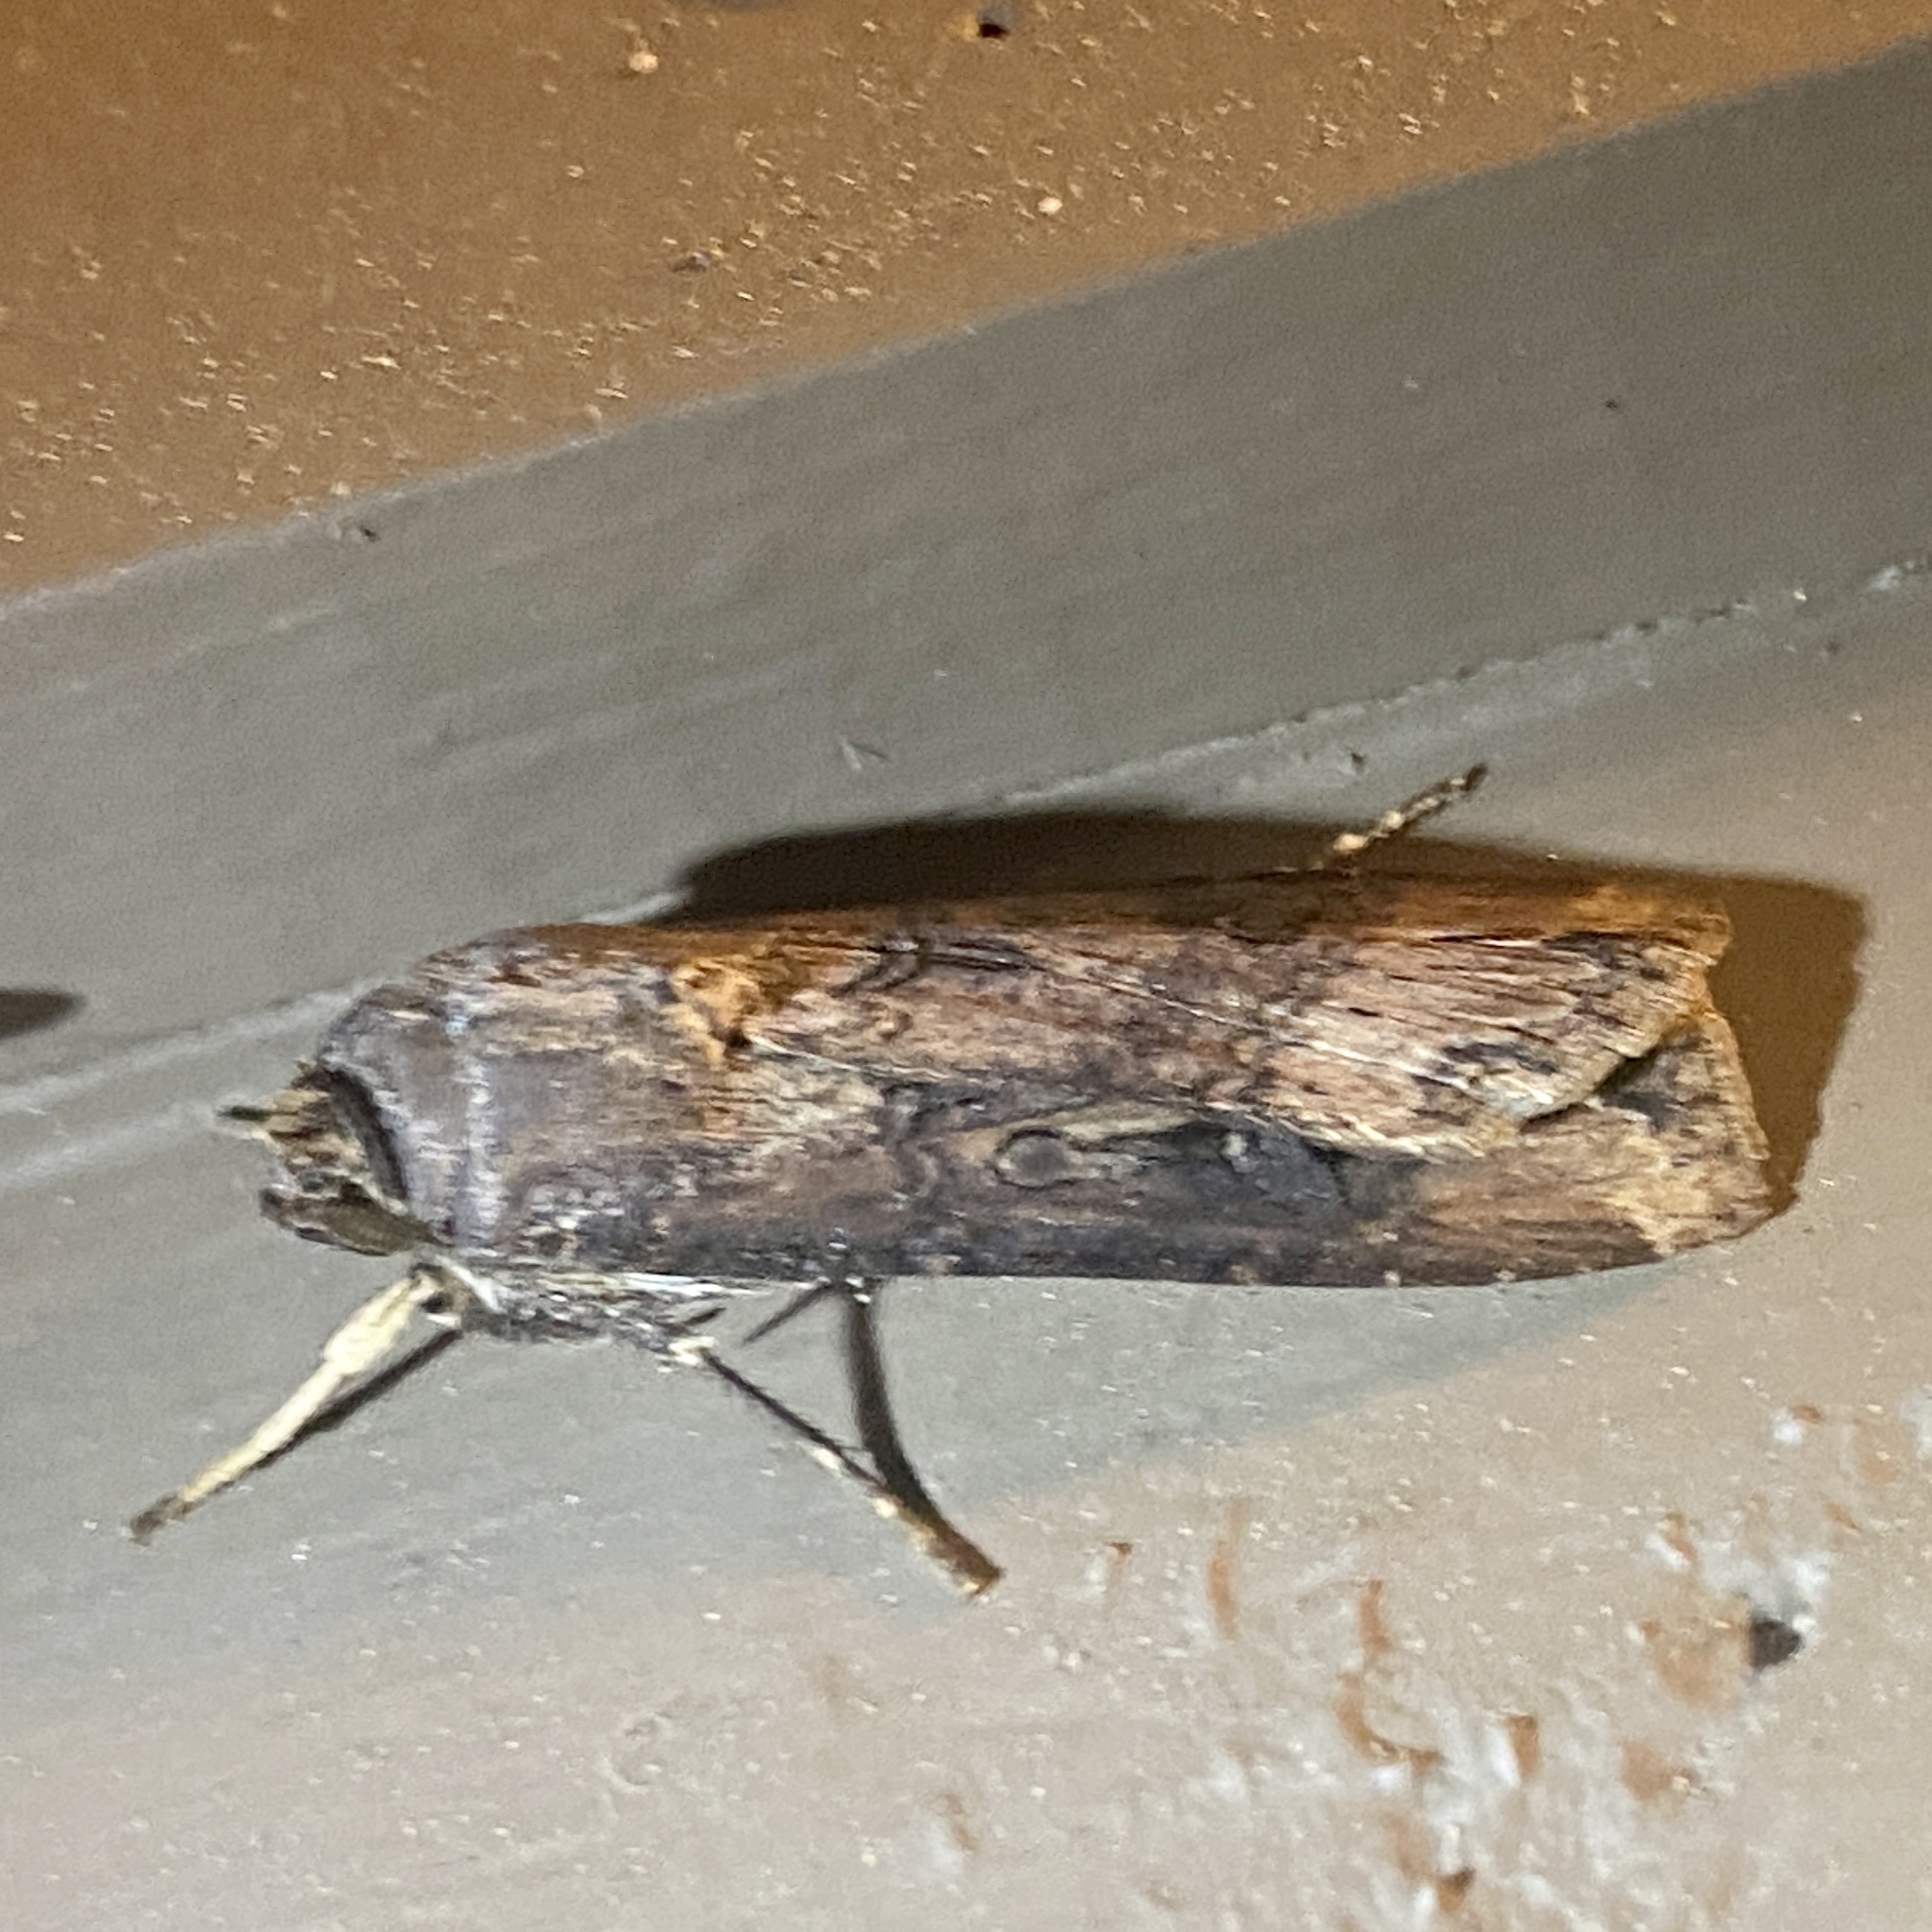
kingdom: Animalia
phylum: Arthropoda
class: Insecta
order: Lepidoptera
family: Noctuidae
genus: Agrotis
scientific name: Agrotis ipsilon
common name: Dark sword-grass
